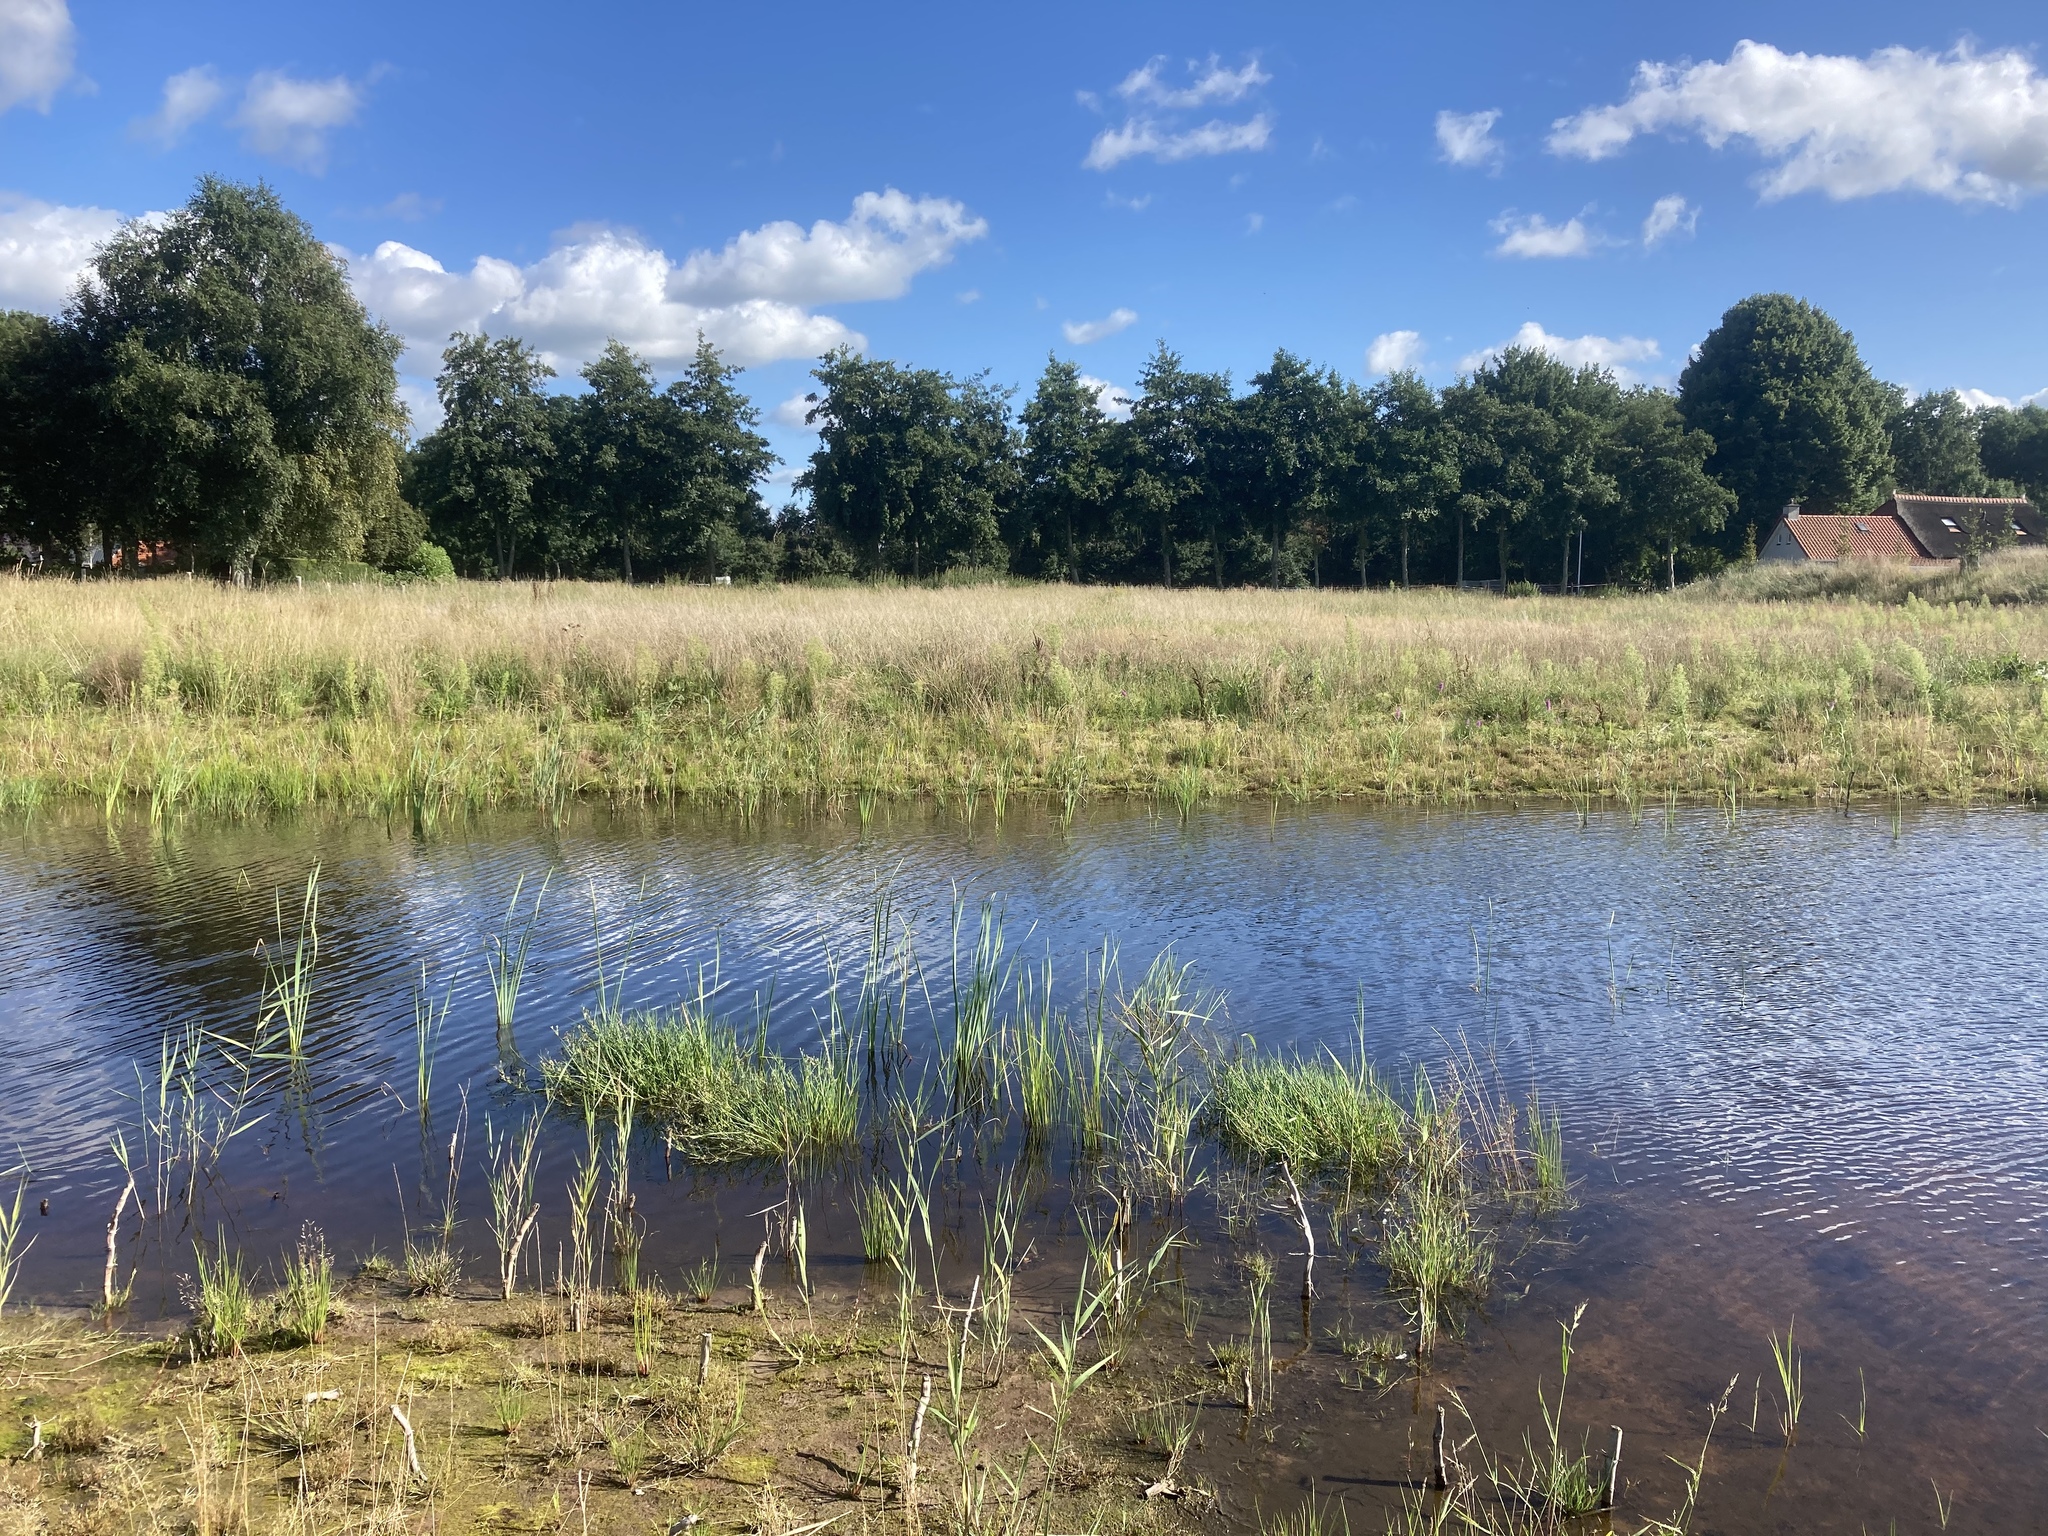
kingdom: Plantae
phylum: Tracheophyta
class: Liliopsida
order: Poales
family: Poaceae
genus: Phragmites
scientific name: Phragmites australis
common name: Common reed
